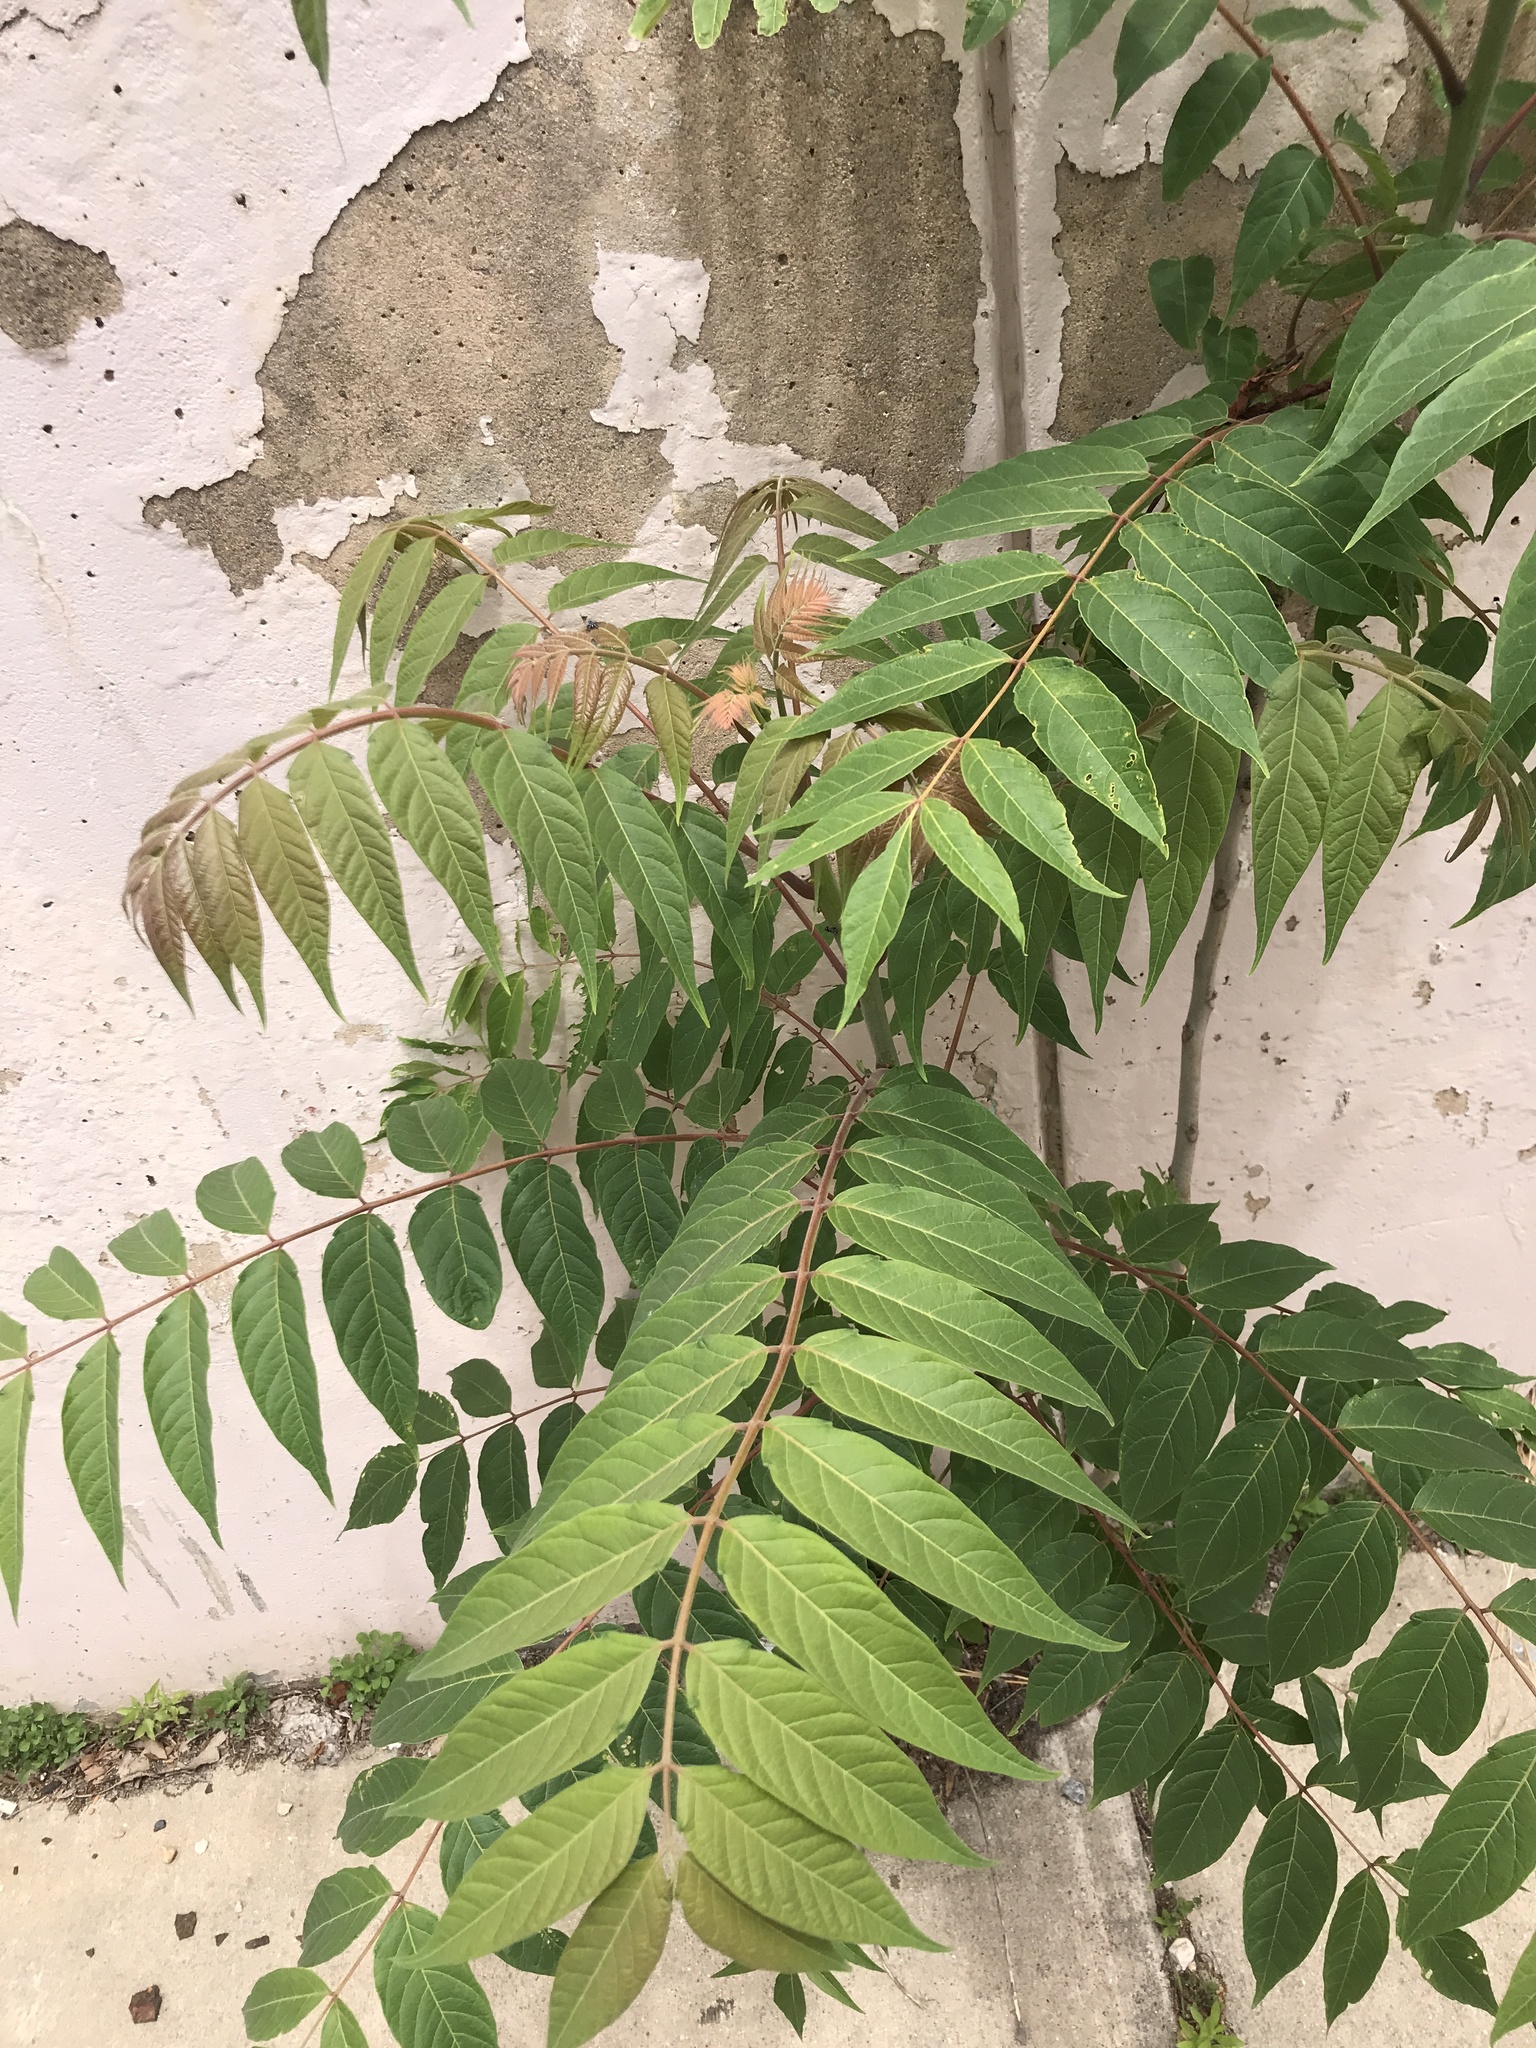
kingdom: Plantae
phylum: Tracheophyta
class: Magnoliopsida
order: Sapindales
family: Simaroubaceae
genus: Ailanthus
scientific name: Ailanthus altissima
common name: Tree-of-heaven
